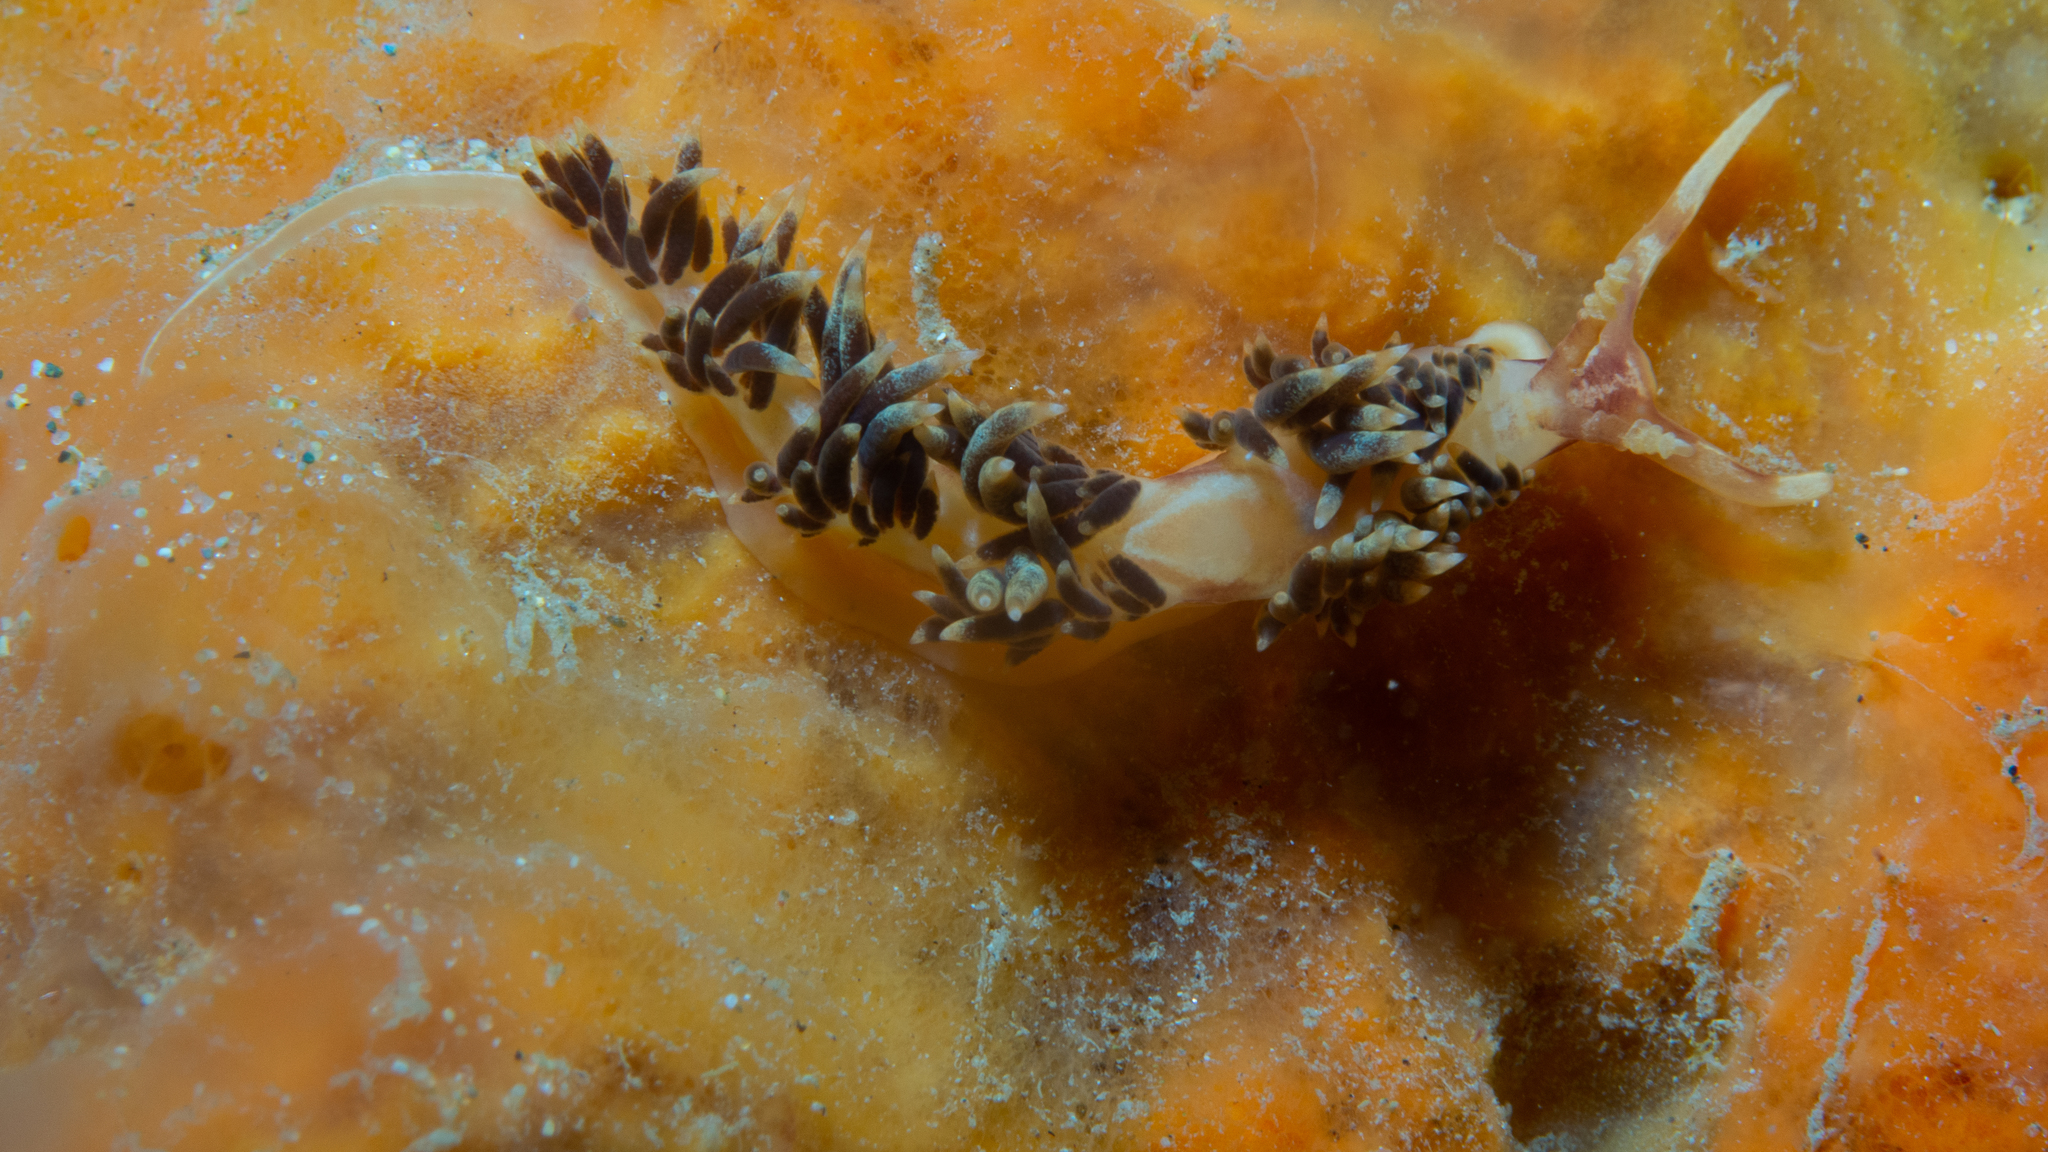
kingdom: Animalia
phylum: Mollusca
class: Gastropoda
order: Nudibranchia
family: Facelinidae
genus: Facelina
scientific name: Facelina newcombi
